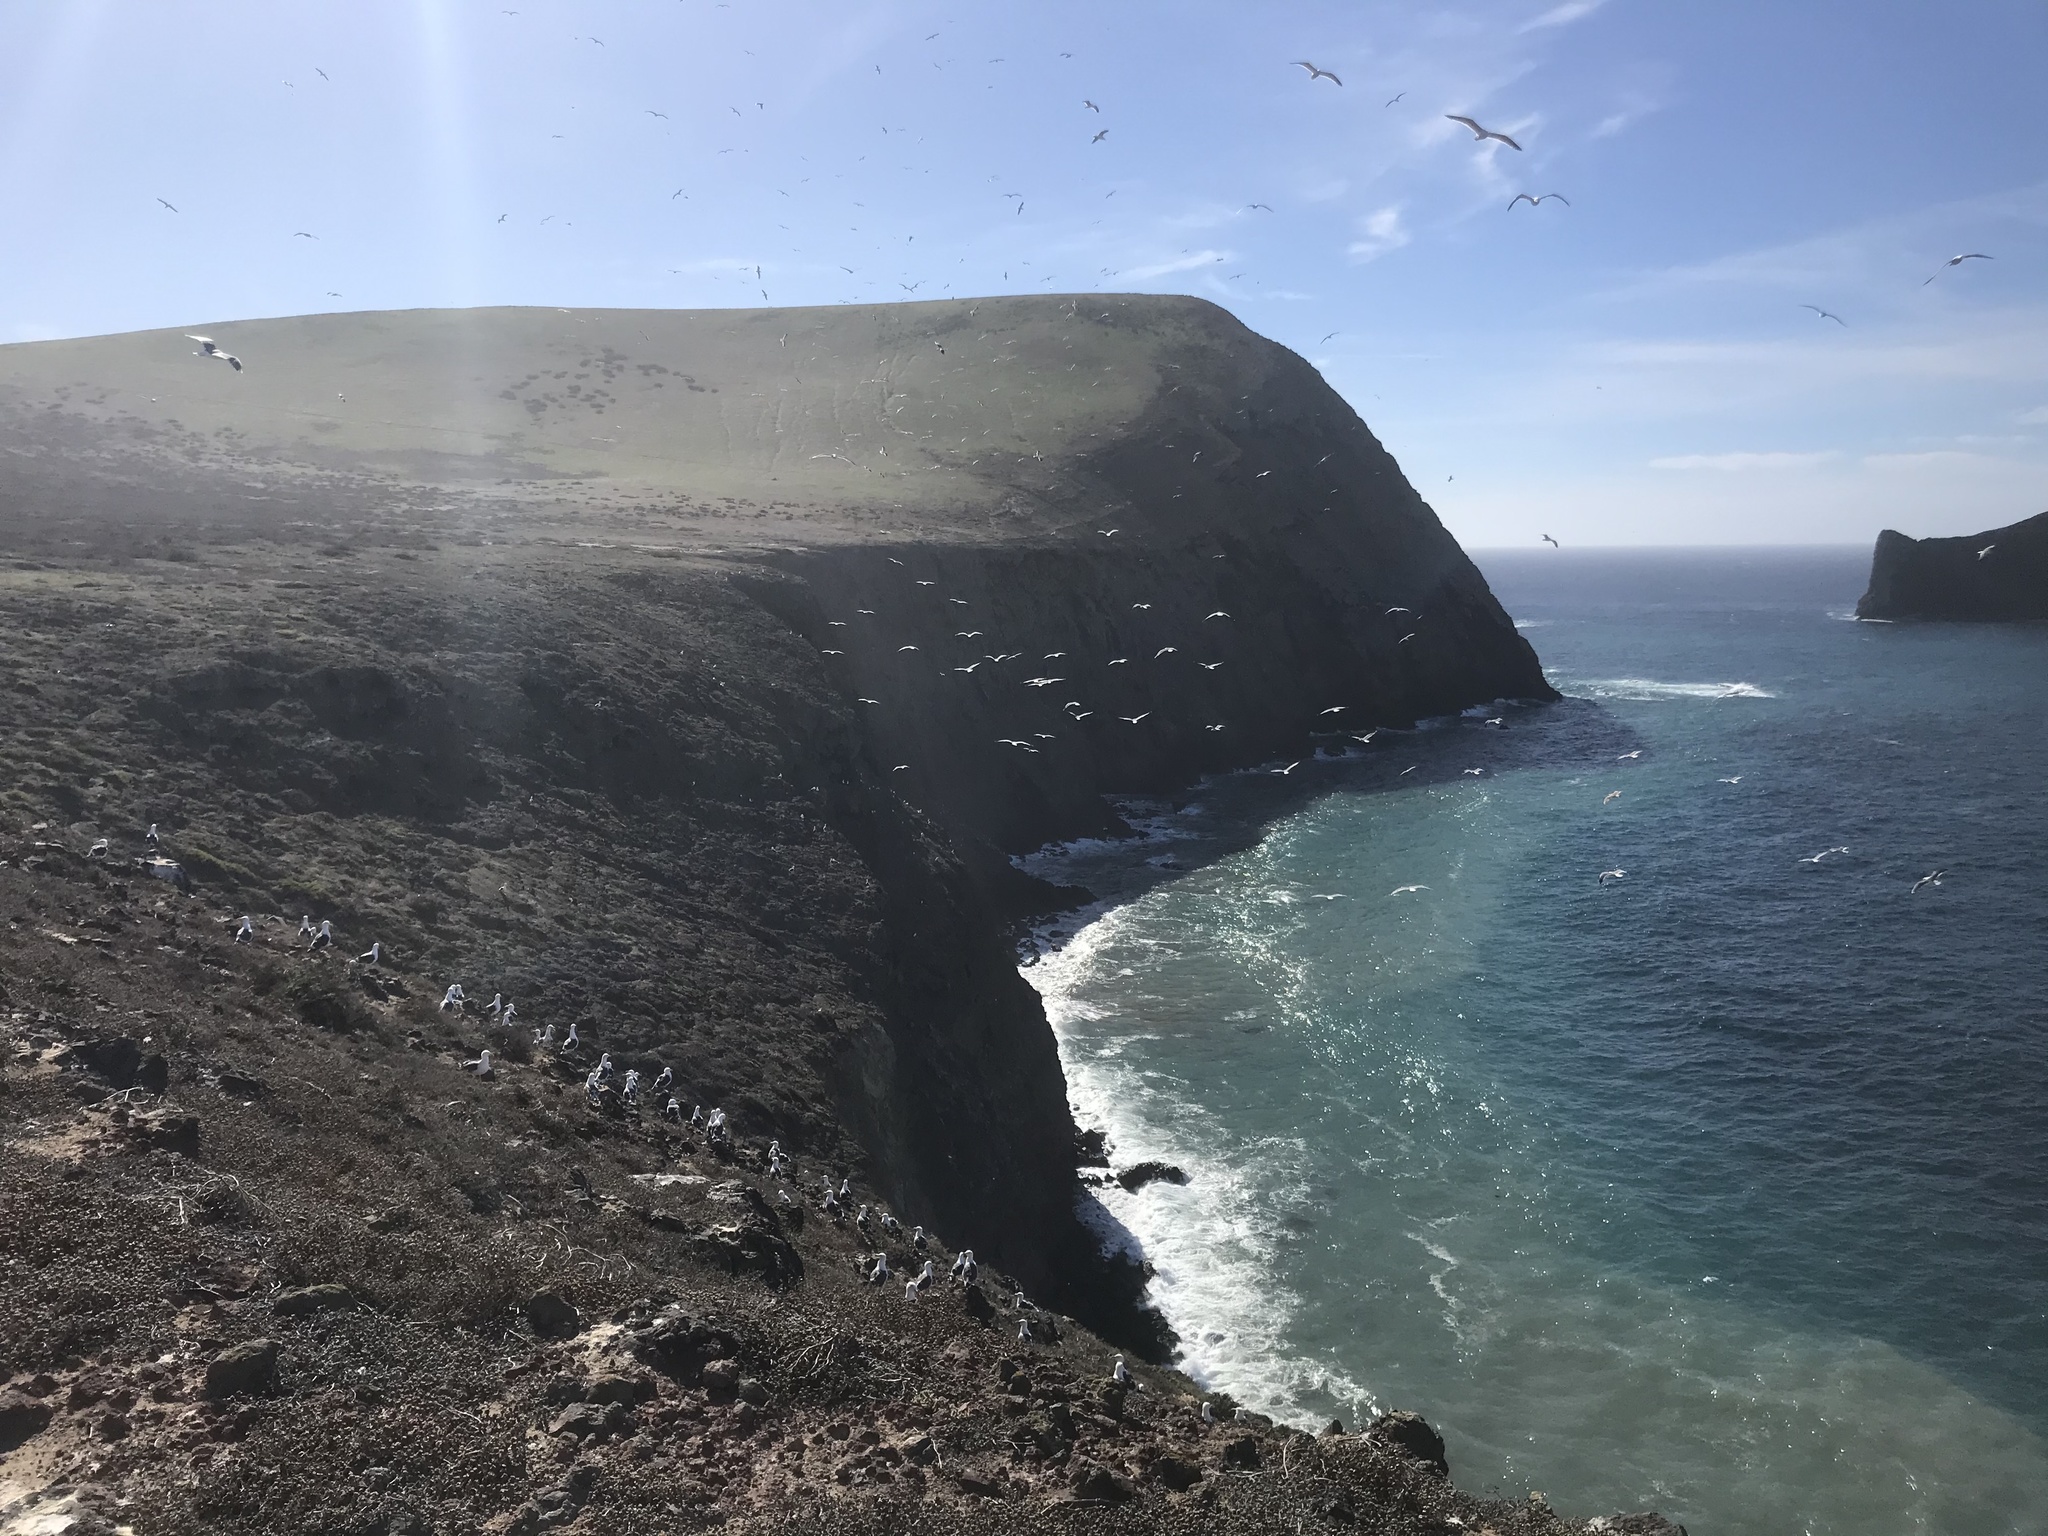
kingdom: Animalia
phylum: Chordata
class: Aves
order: Charadriiformes
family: Laridae
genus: Larus
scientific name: Larus occidentalis
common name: Western gull
